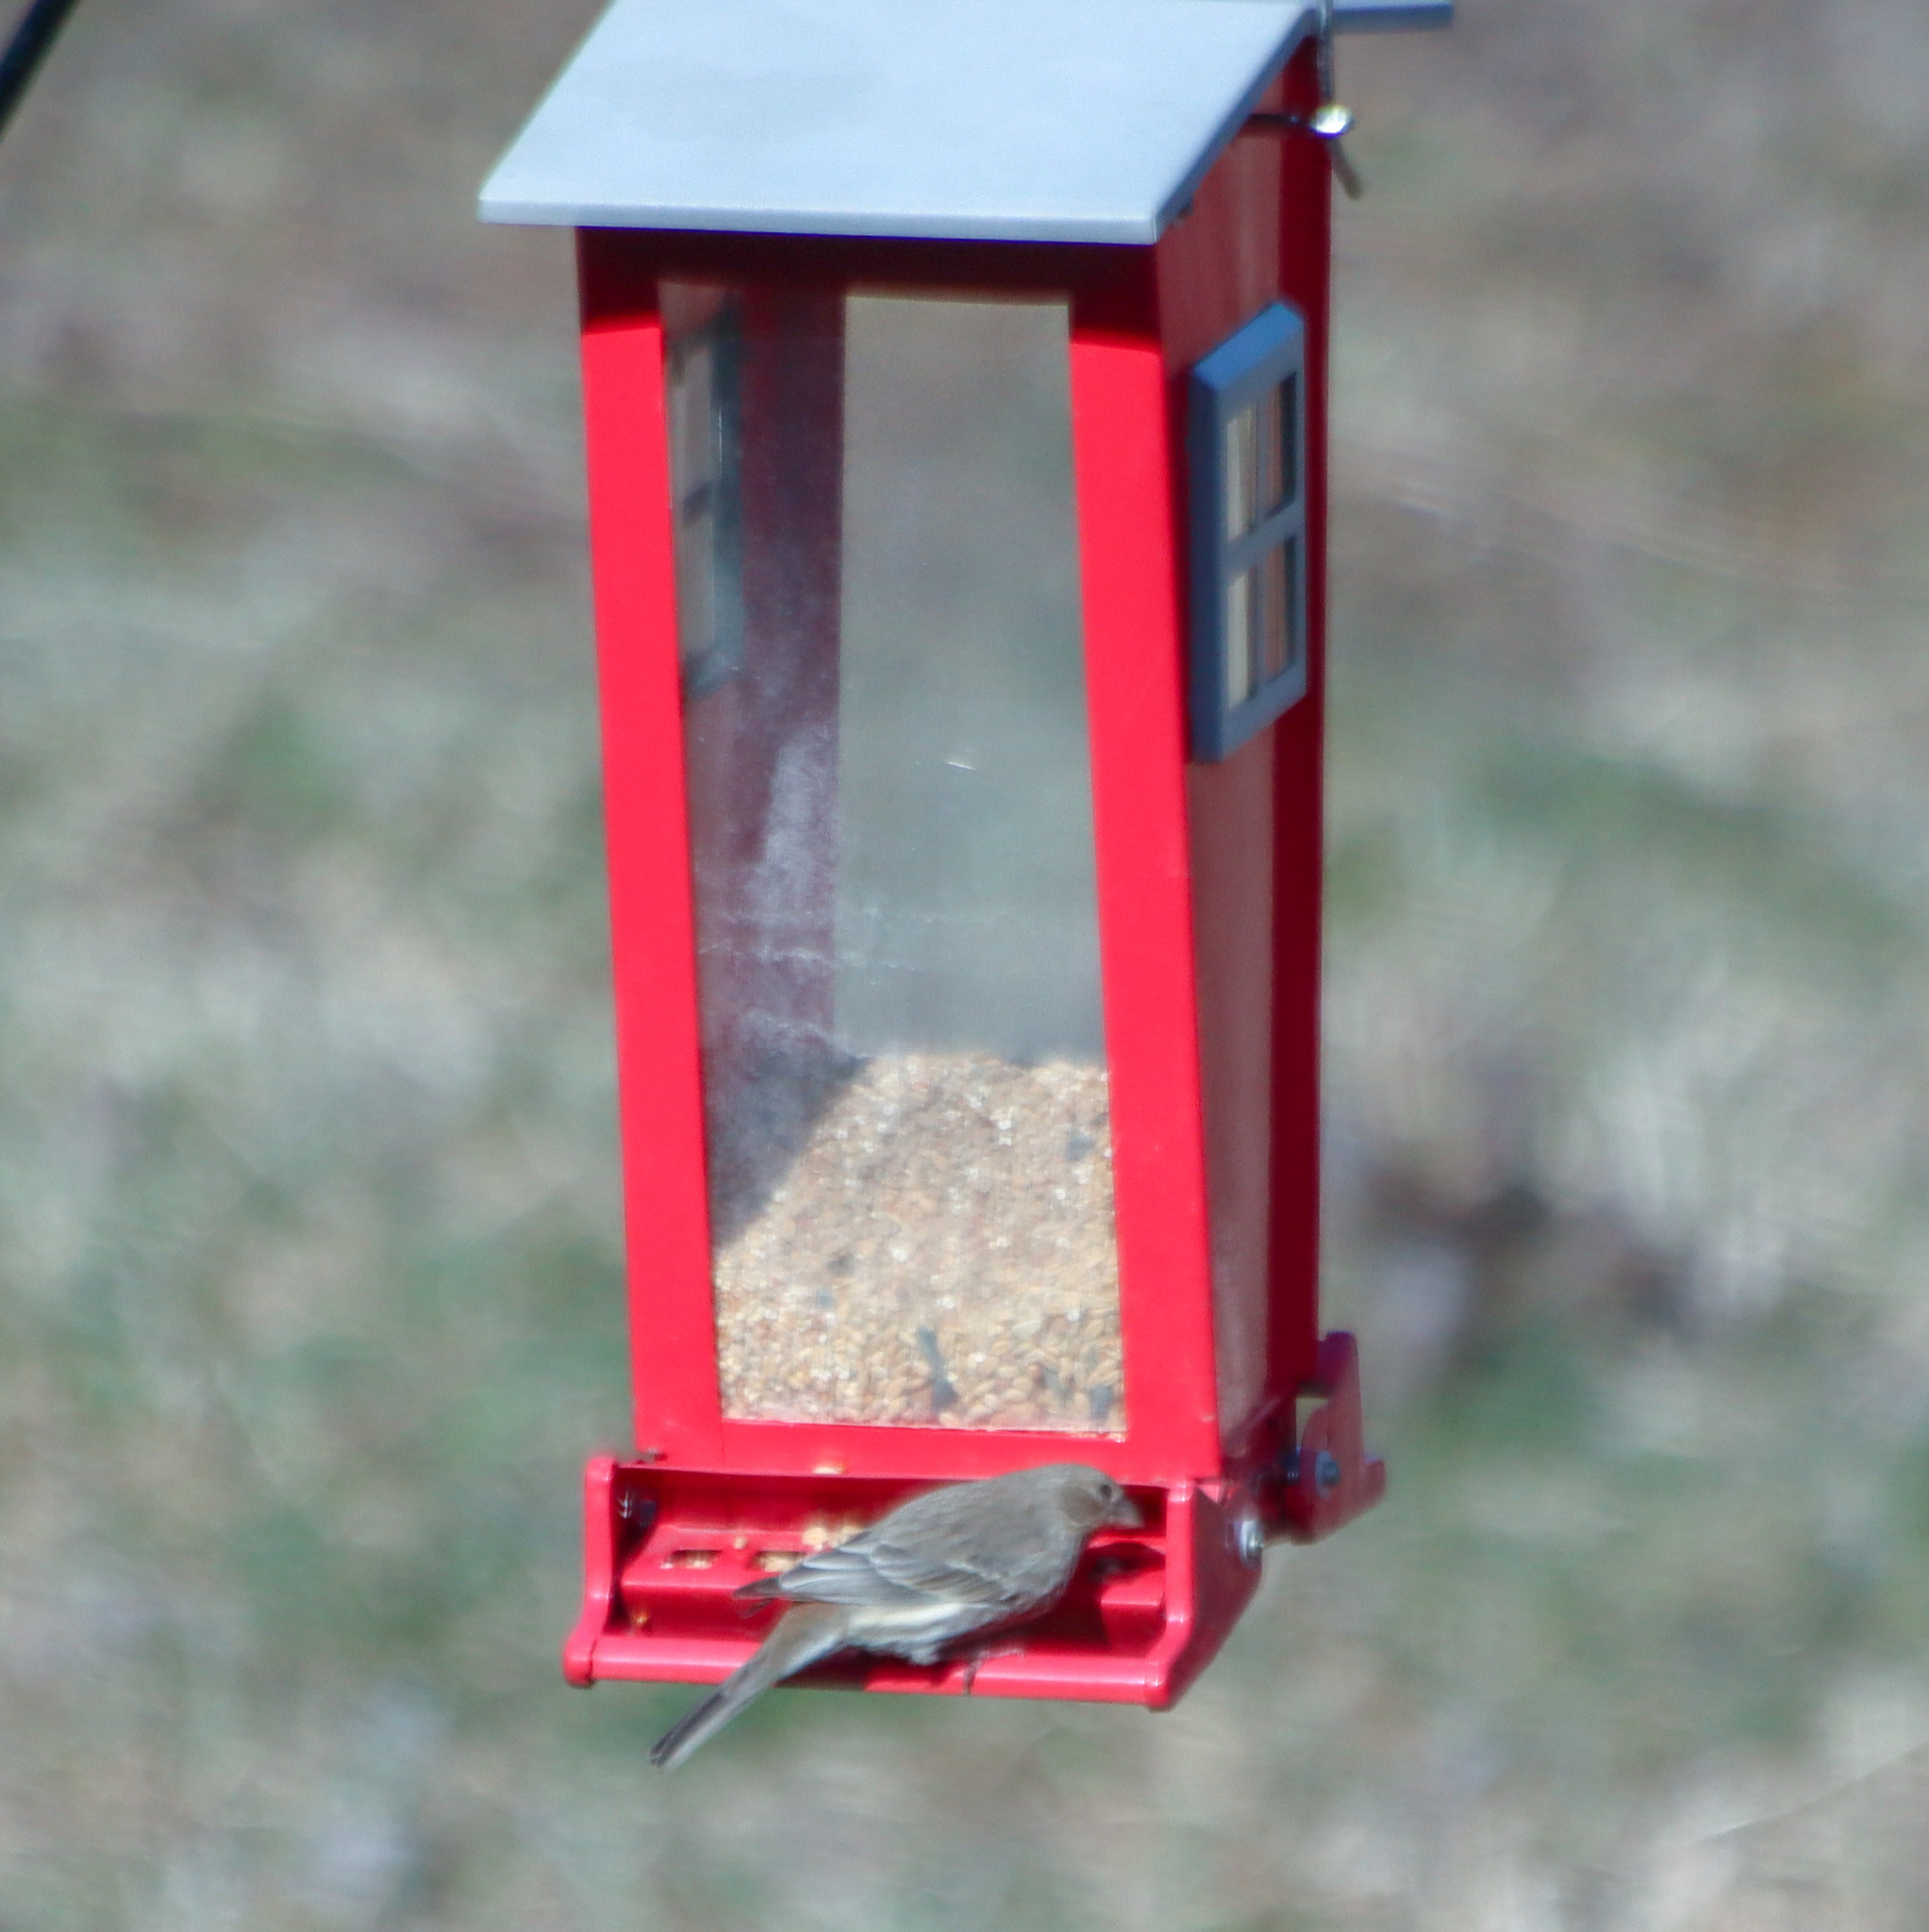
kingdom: Animalia
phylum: Chordata
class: Aves
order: Passeriformes
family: Fringillidae
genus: Haemorhous
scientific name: Haemorhous mexicanus
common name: House finch
